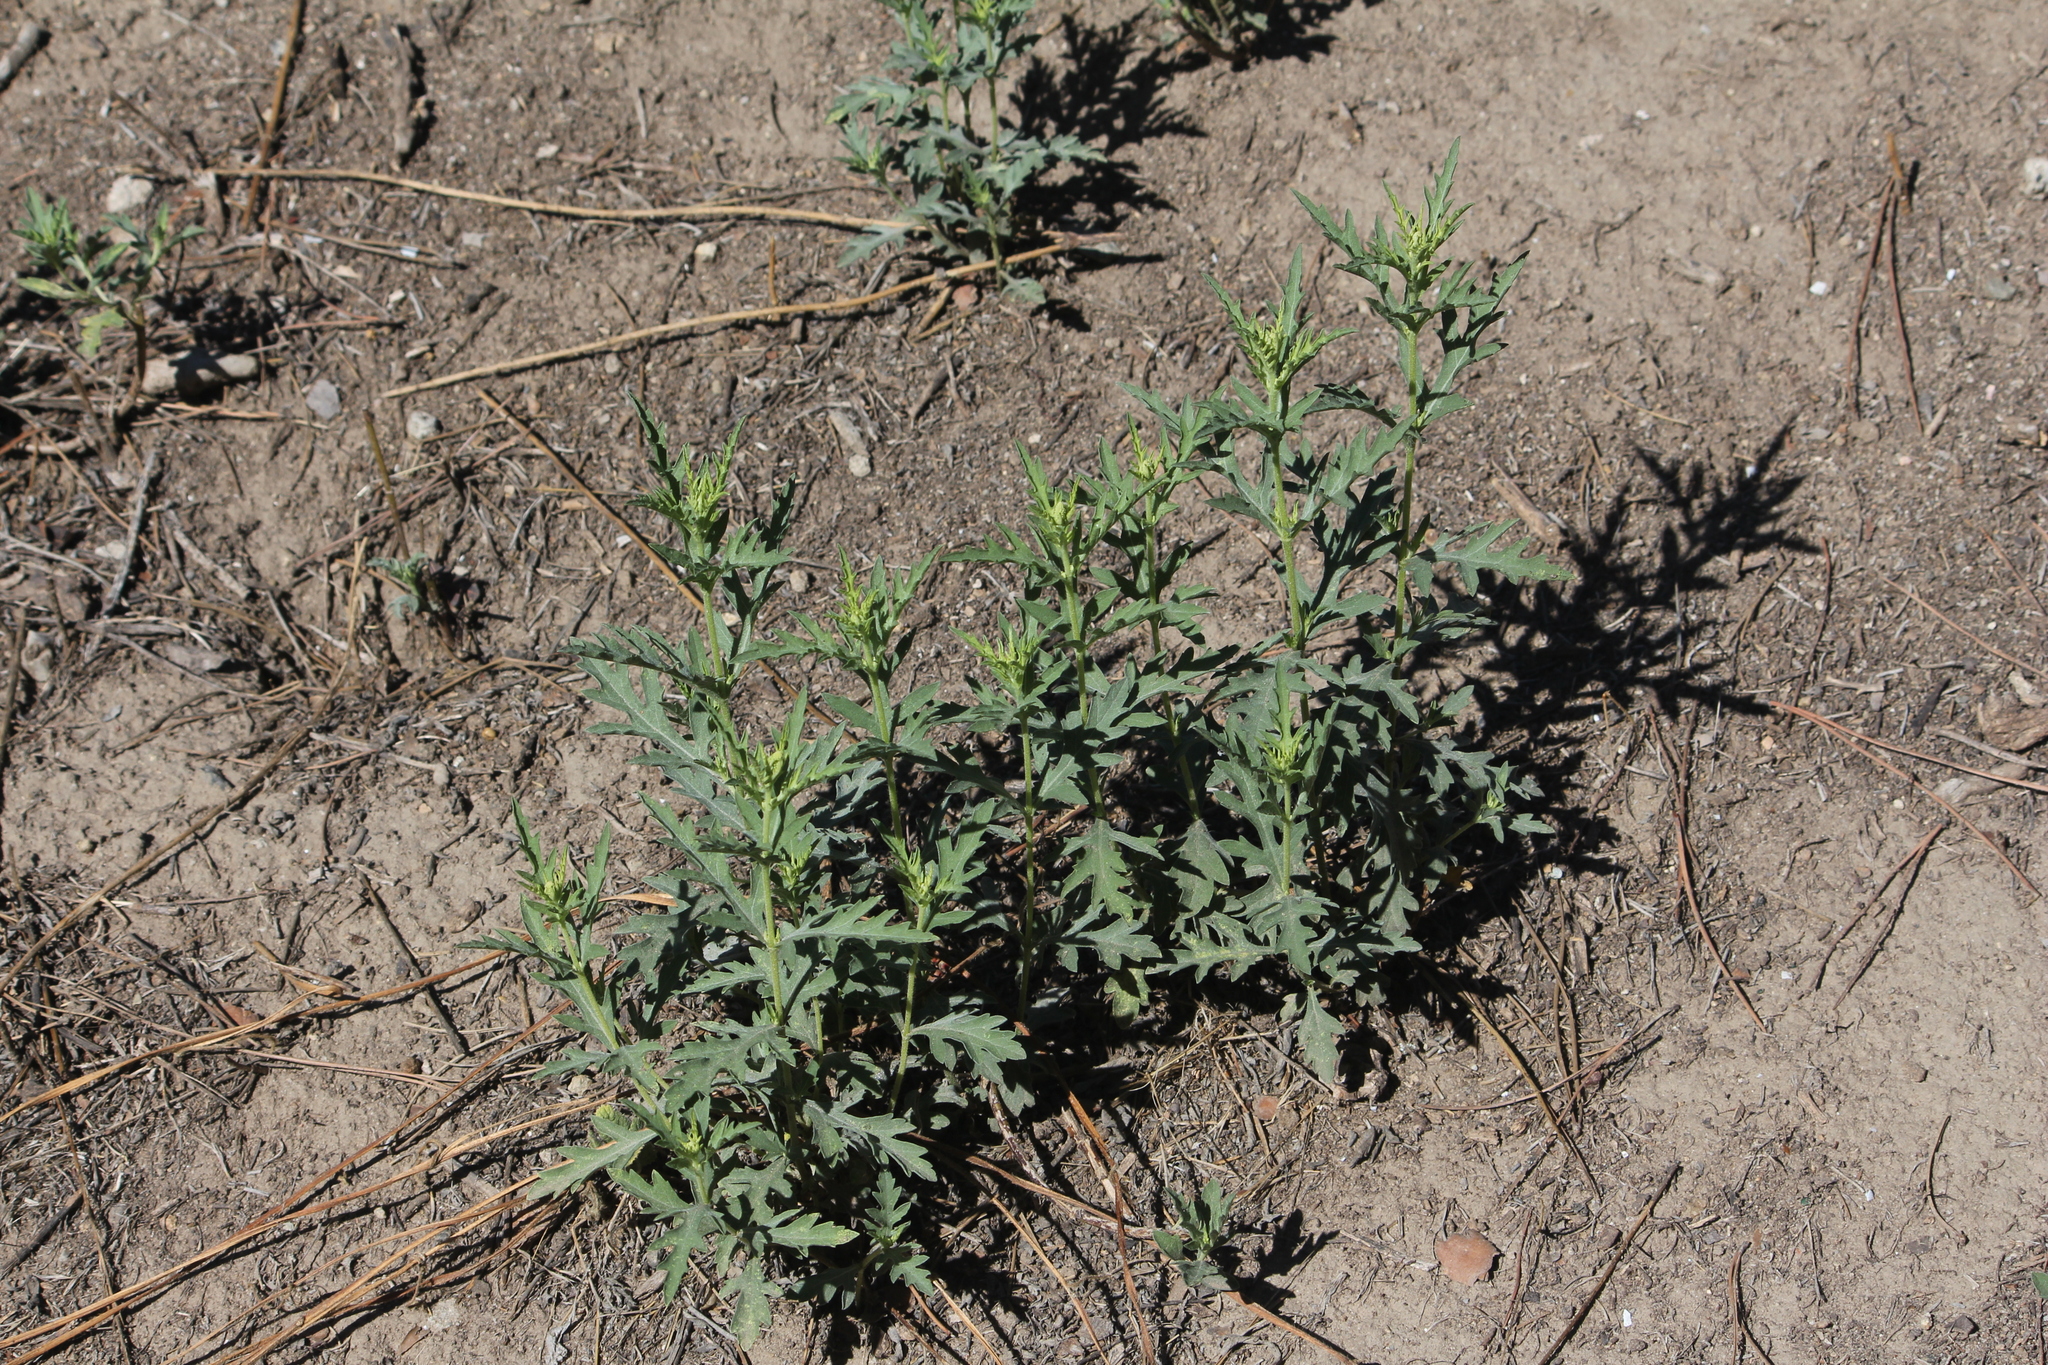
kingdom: Plantae
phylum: Tracheophyta
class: Magnoliopsida
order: Asterales
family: Asteraceae
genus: Ambrosia
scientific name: Ambrosia psilostachya
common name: Perennial ragweed
